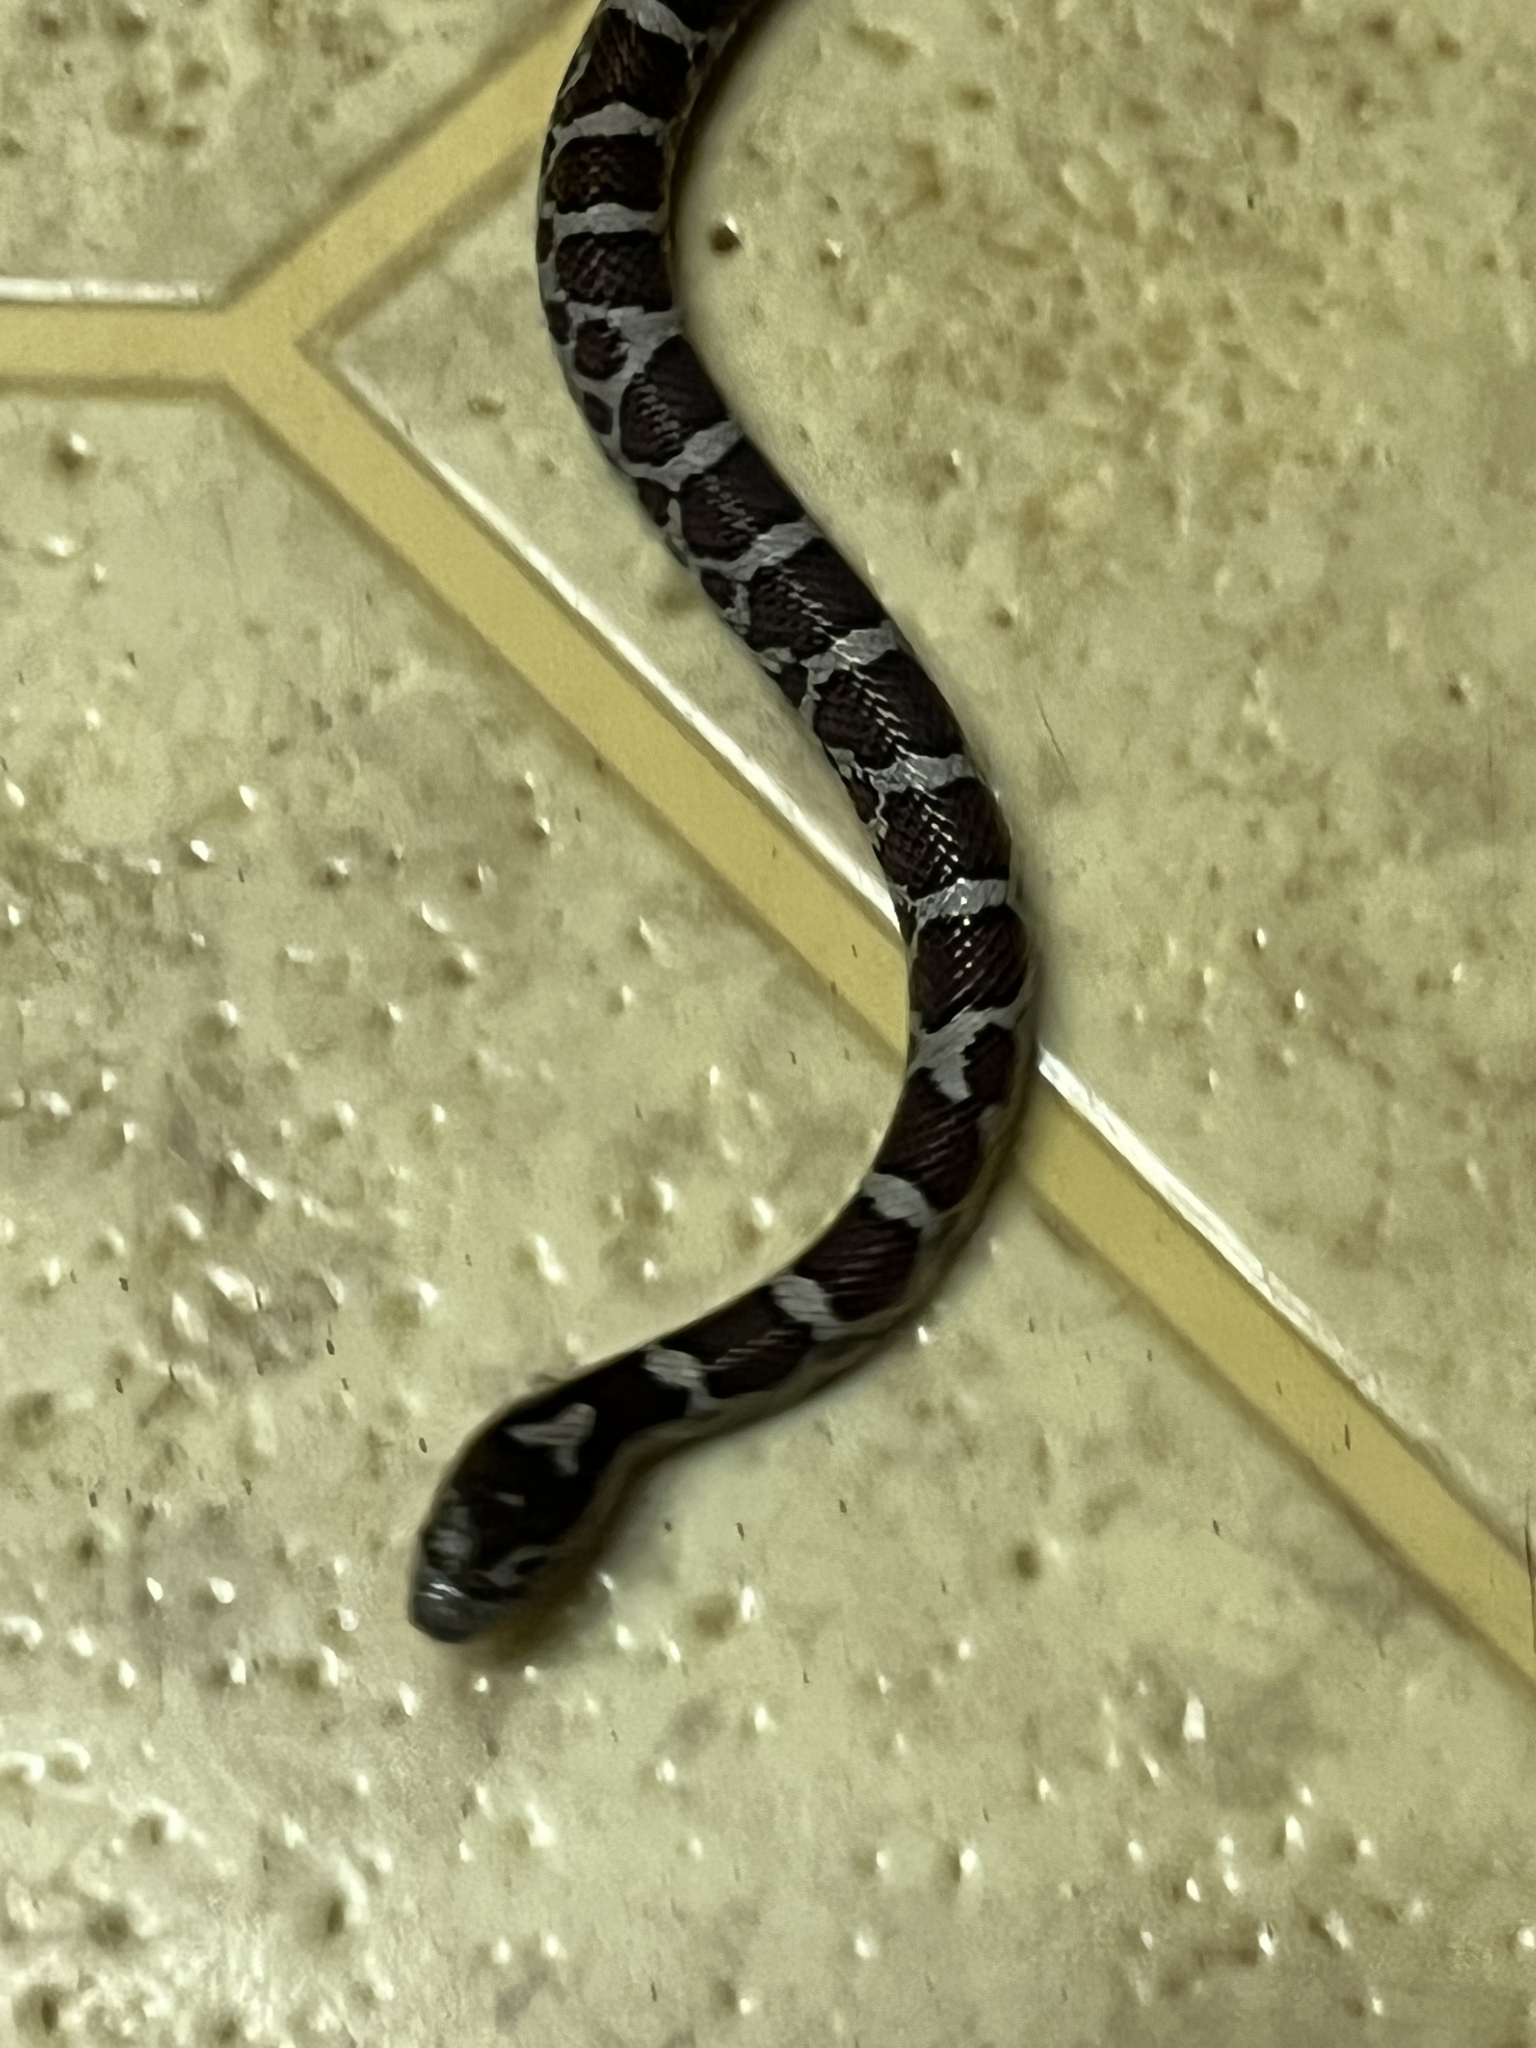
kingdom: Animalia
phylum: Chordata
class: Squamata
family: Colubridae
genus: Lampropeltis
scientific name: Lampropeltis triangulum
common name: Eastern milksnake
